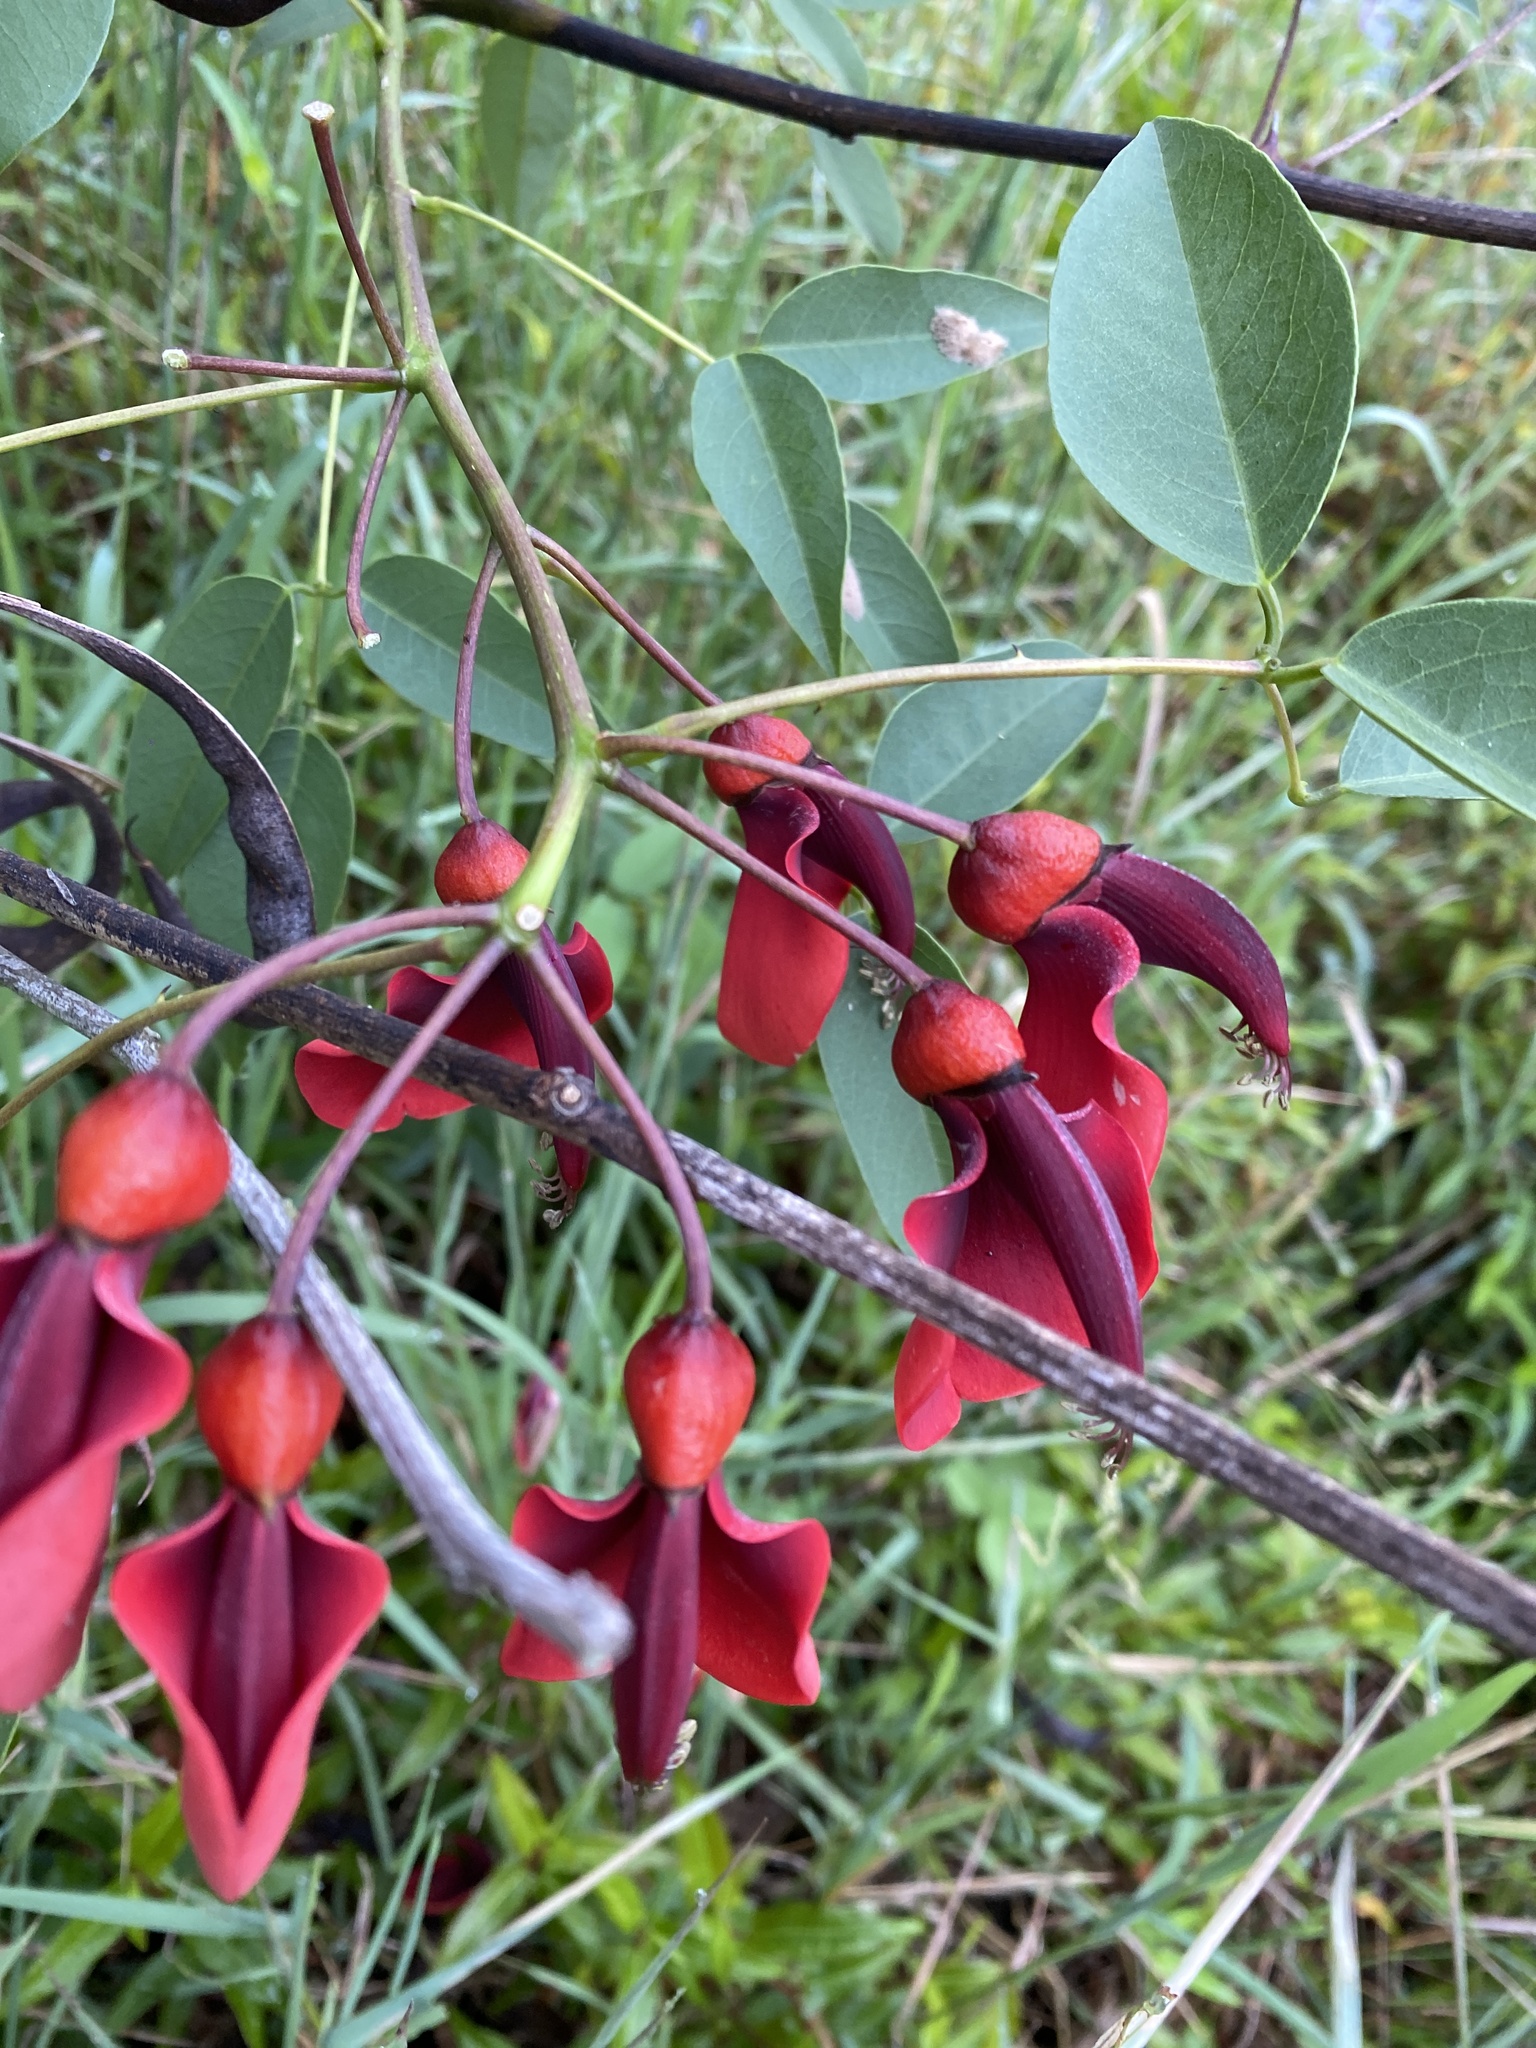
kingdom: Plantae
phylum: Tracheophyta
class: Magnoliopsida
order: Fabales
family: Fabaceae
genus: Erythrina
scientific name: Erythrina crista-galli
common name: Cockspur coral tree
